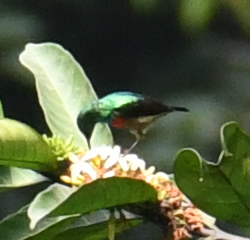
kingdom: Animalia
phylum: Chordata
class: Aves
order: Passeriformes
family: Nectariniidae
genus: Cinnyris
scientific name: Cinnyris minullus
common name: Tiny sunbird
